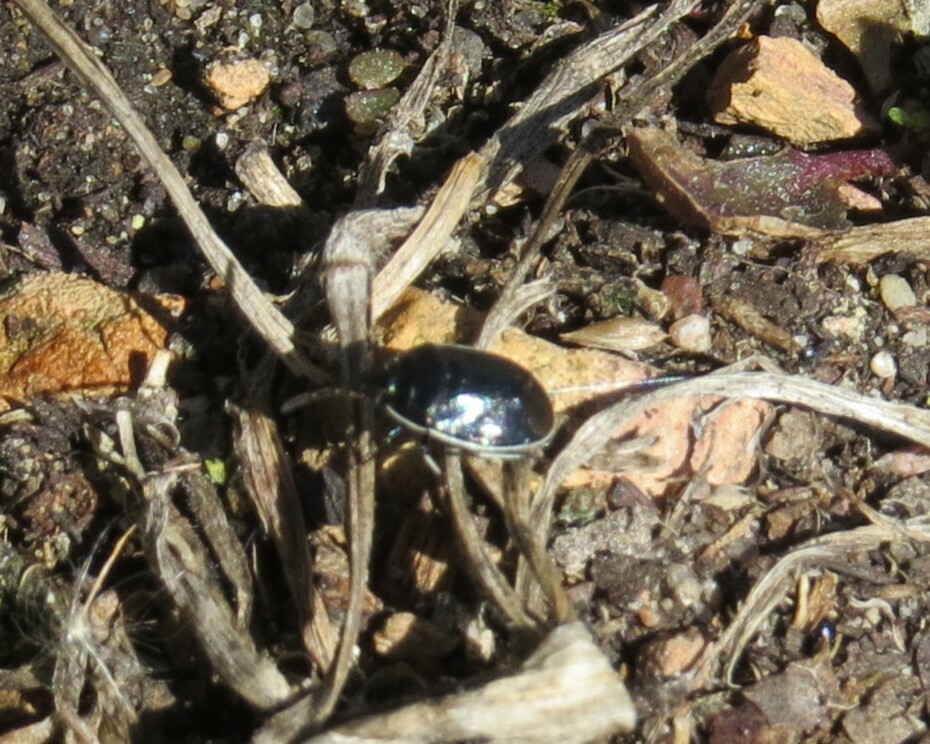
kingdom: Animalia
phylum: Arthropoda
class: Insecta
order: Hemiptera
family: Cydnidae
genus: Sehirus
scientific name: Sehirus cinctus
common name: White-margined burrower bug
